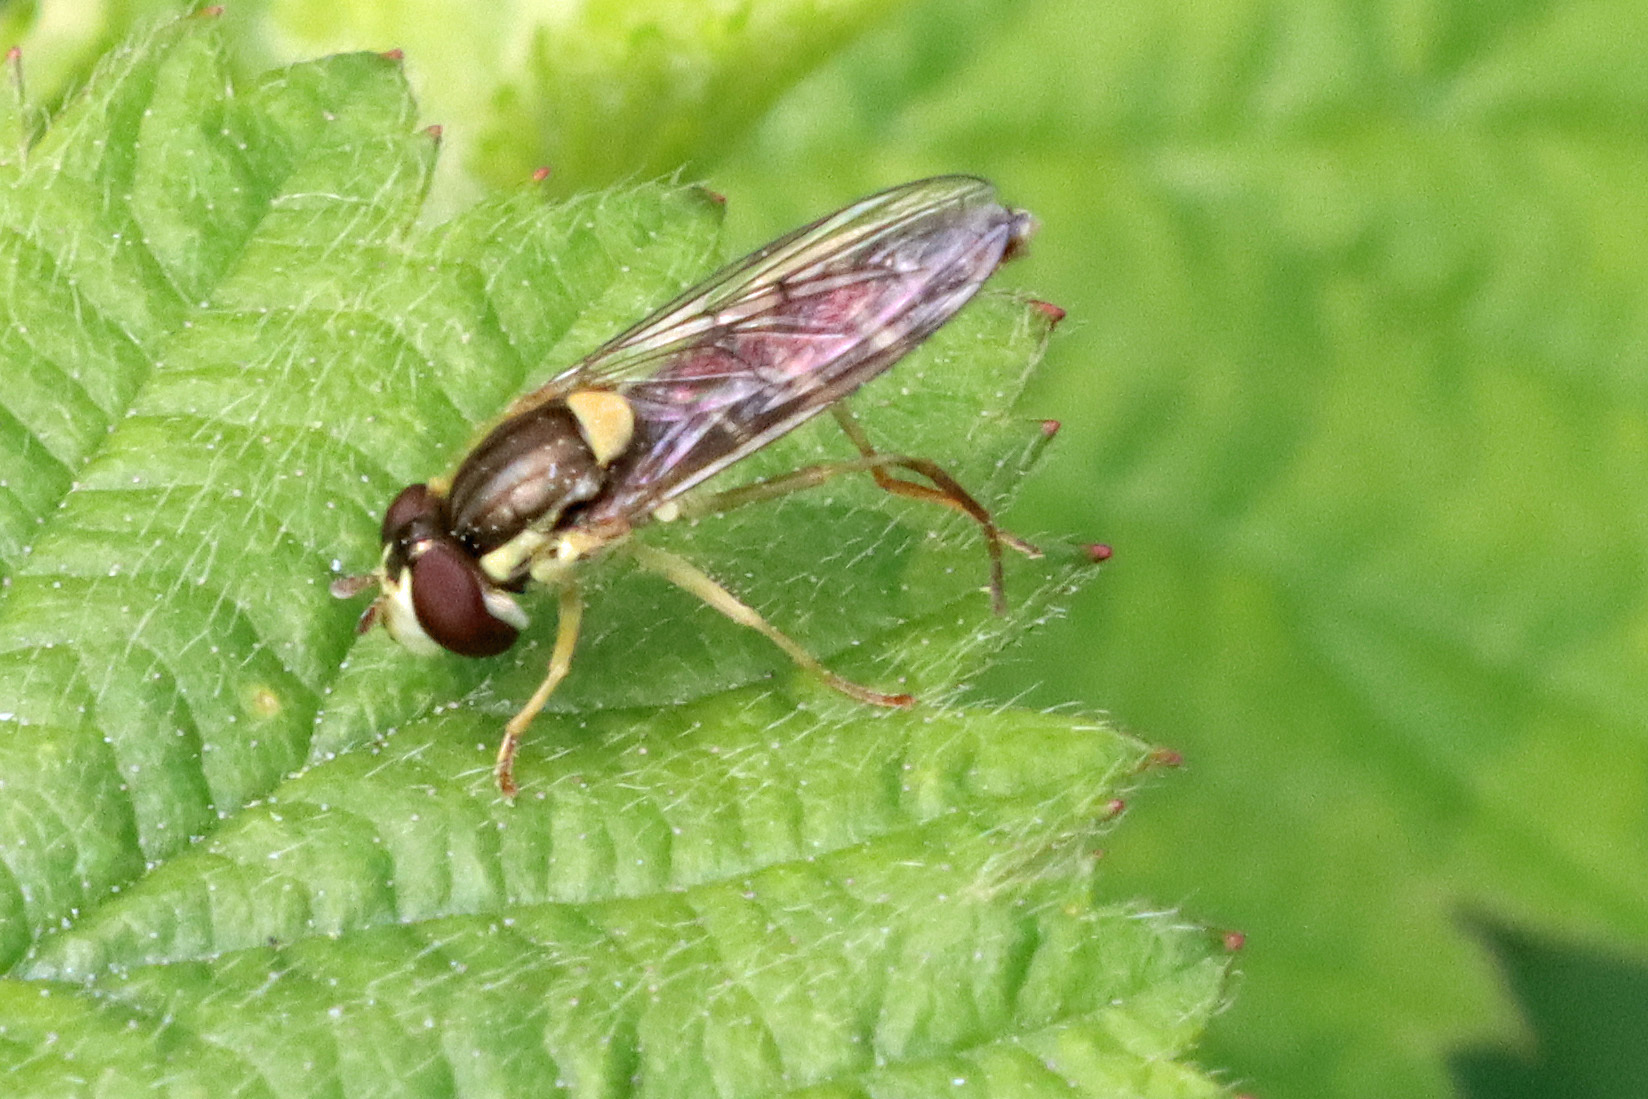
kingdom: Animalia
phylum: Arthropoda
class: Insecta
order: Diptera
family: Syrphidae
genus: Sphaerophoria
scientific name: Sphaerophoria
